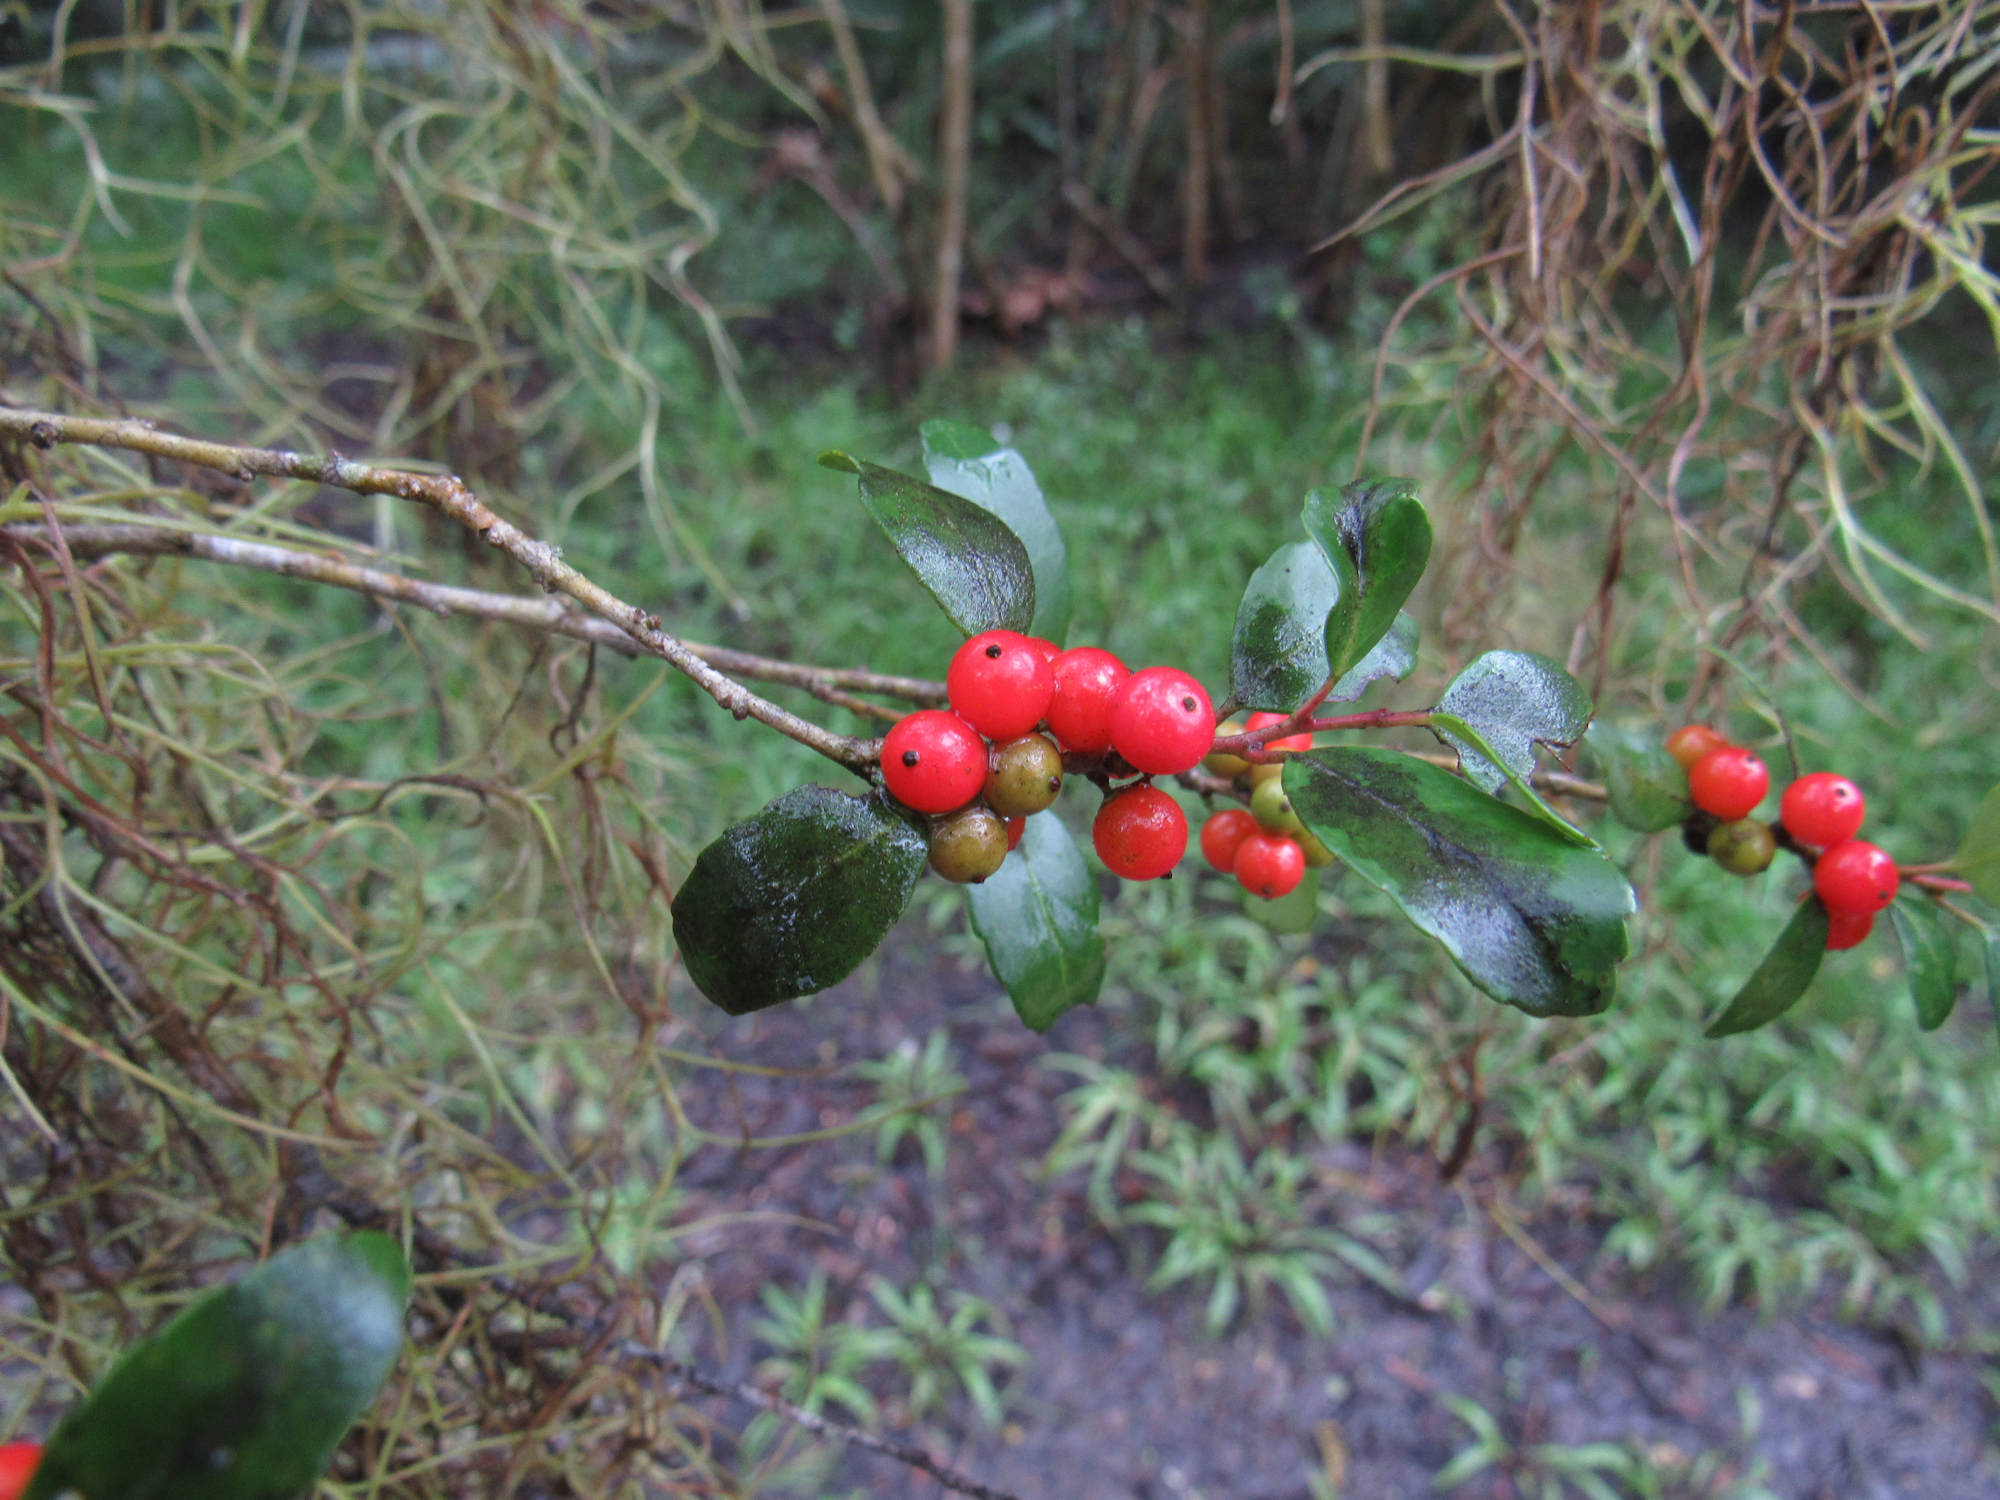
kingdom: Plantae
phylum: Tracheophyta
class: Magnoliopsida
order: Aquifoliales
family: Aquifoliaceae
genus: Ilex
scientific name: Ilex vomitoria
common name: Yaupon holly
